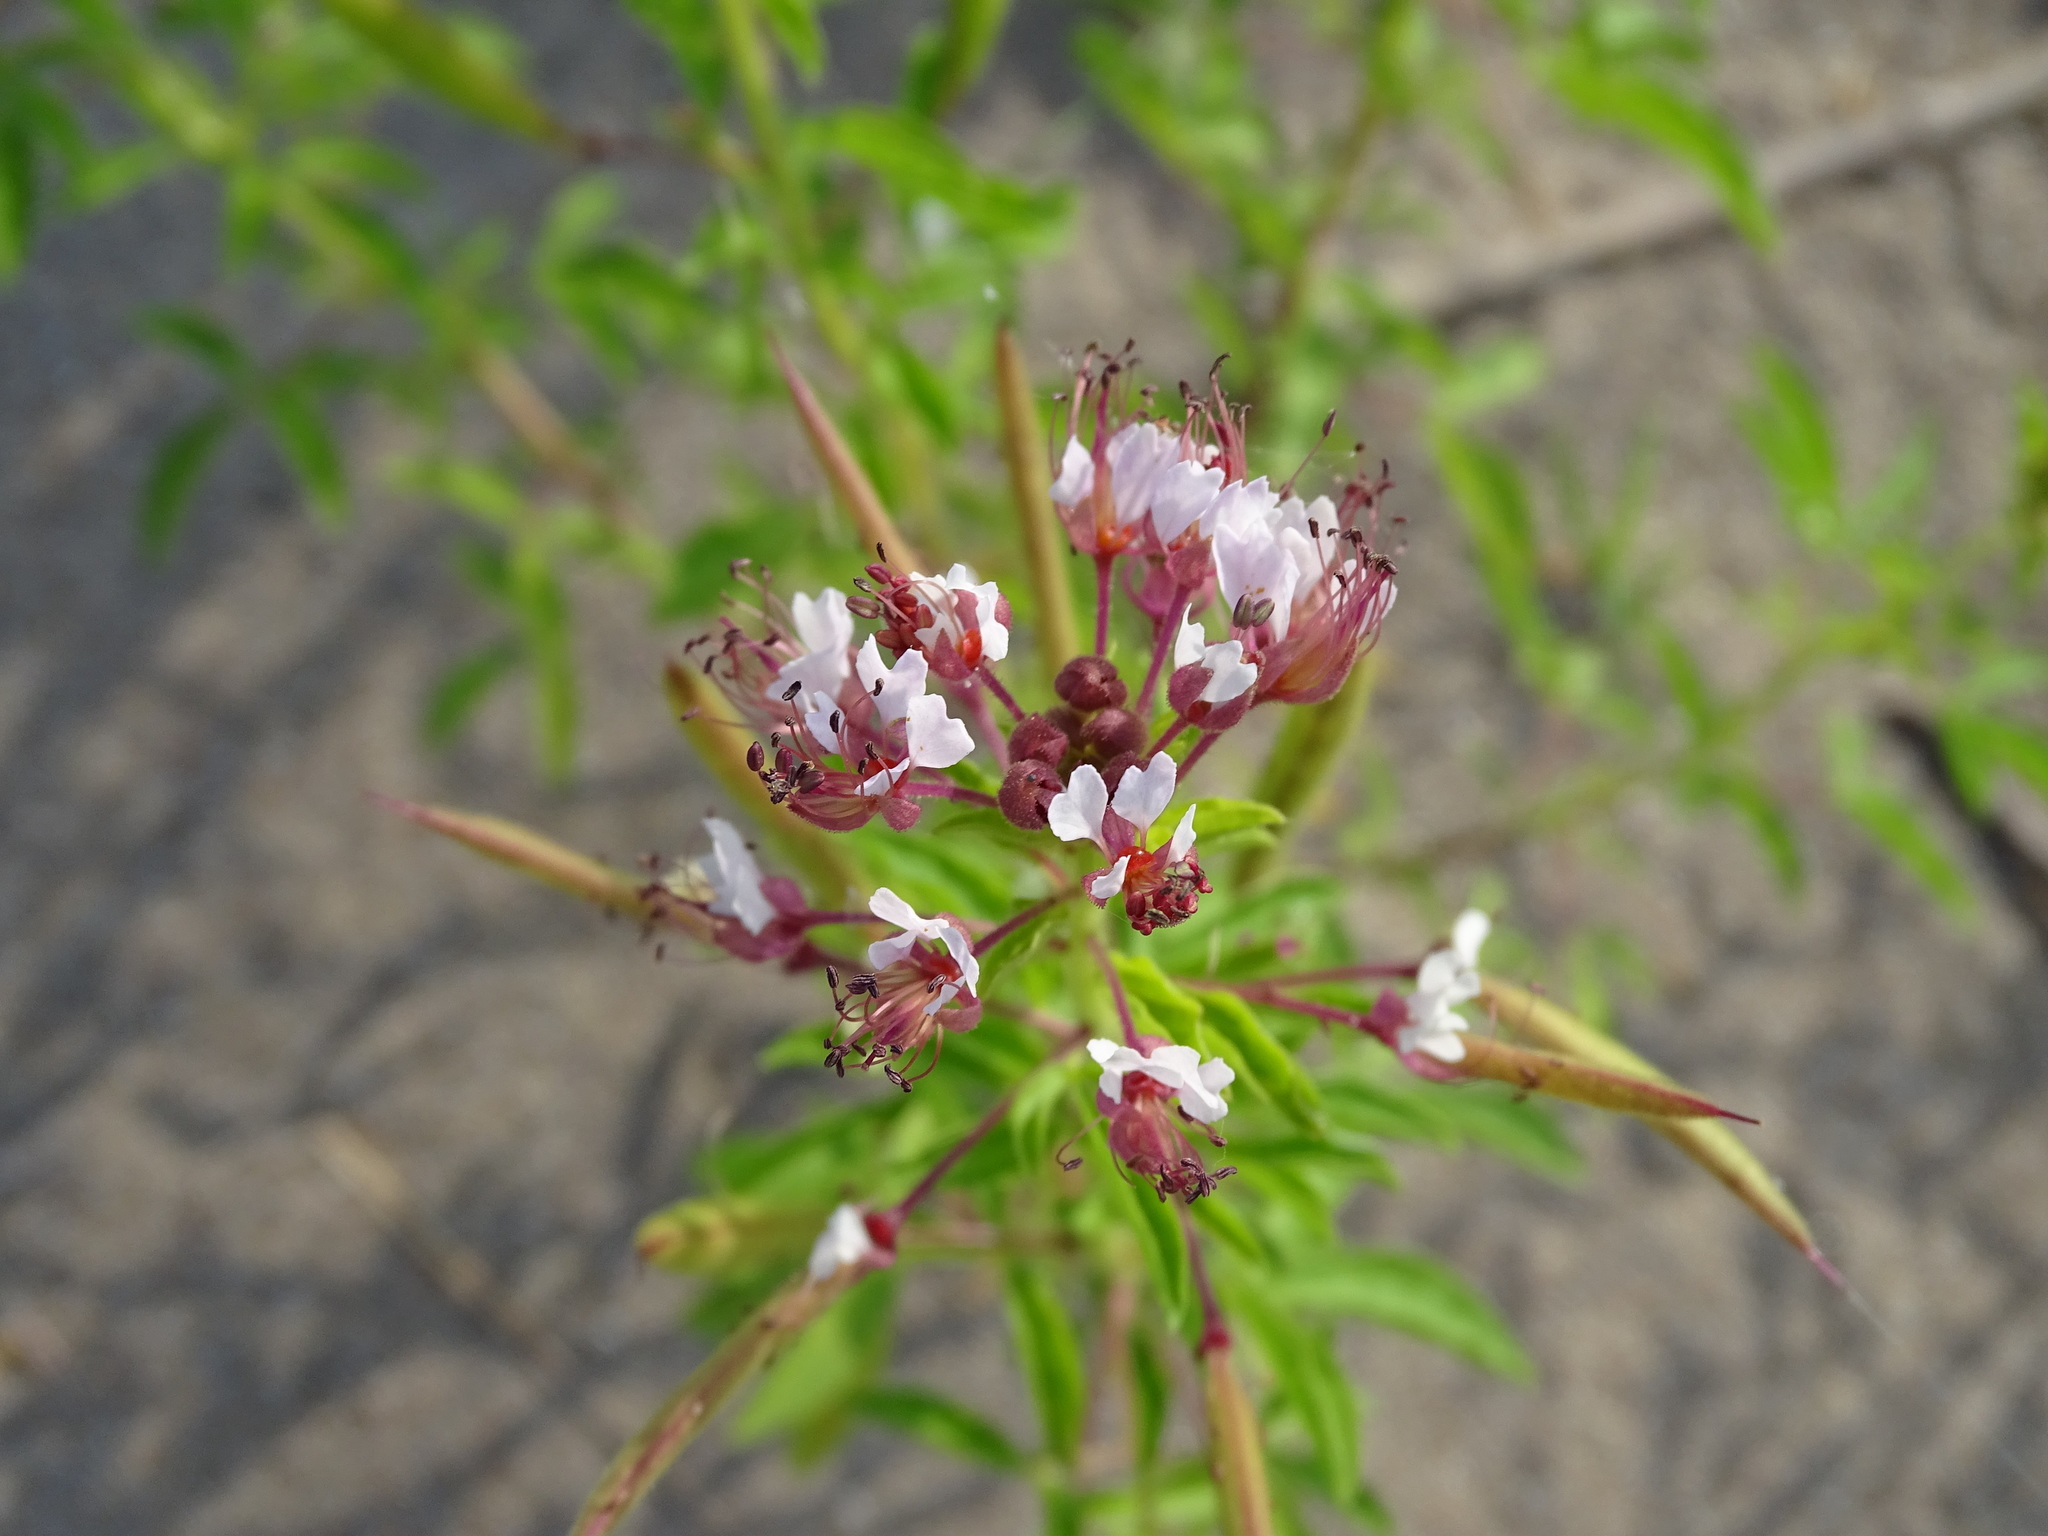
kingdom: Plantae
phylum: Tracheophyta
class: Magnoliopsida
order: Brassicales
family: Cleomaceae
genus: Polanisia
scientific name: Polanisia dodecandra
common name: Clammyweed
